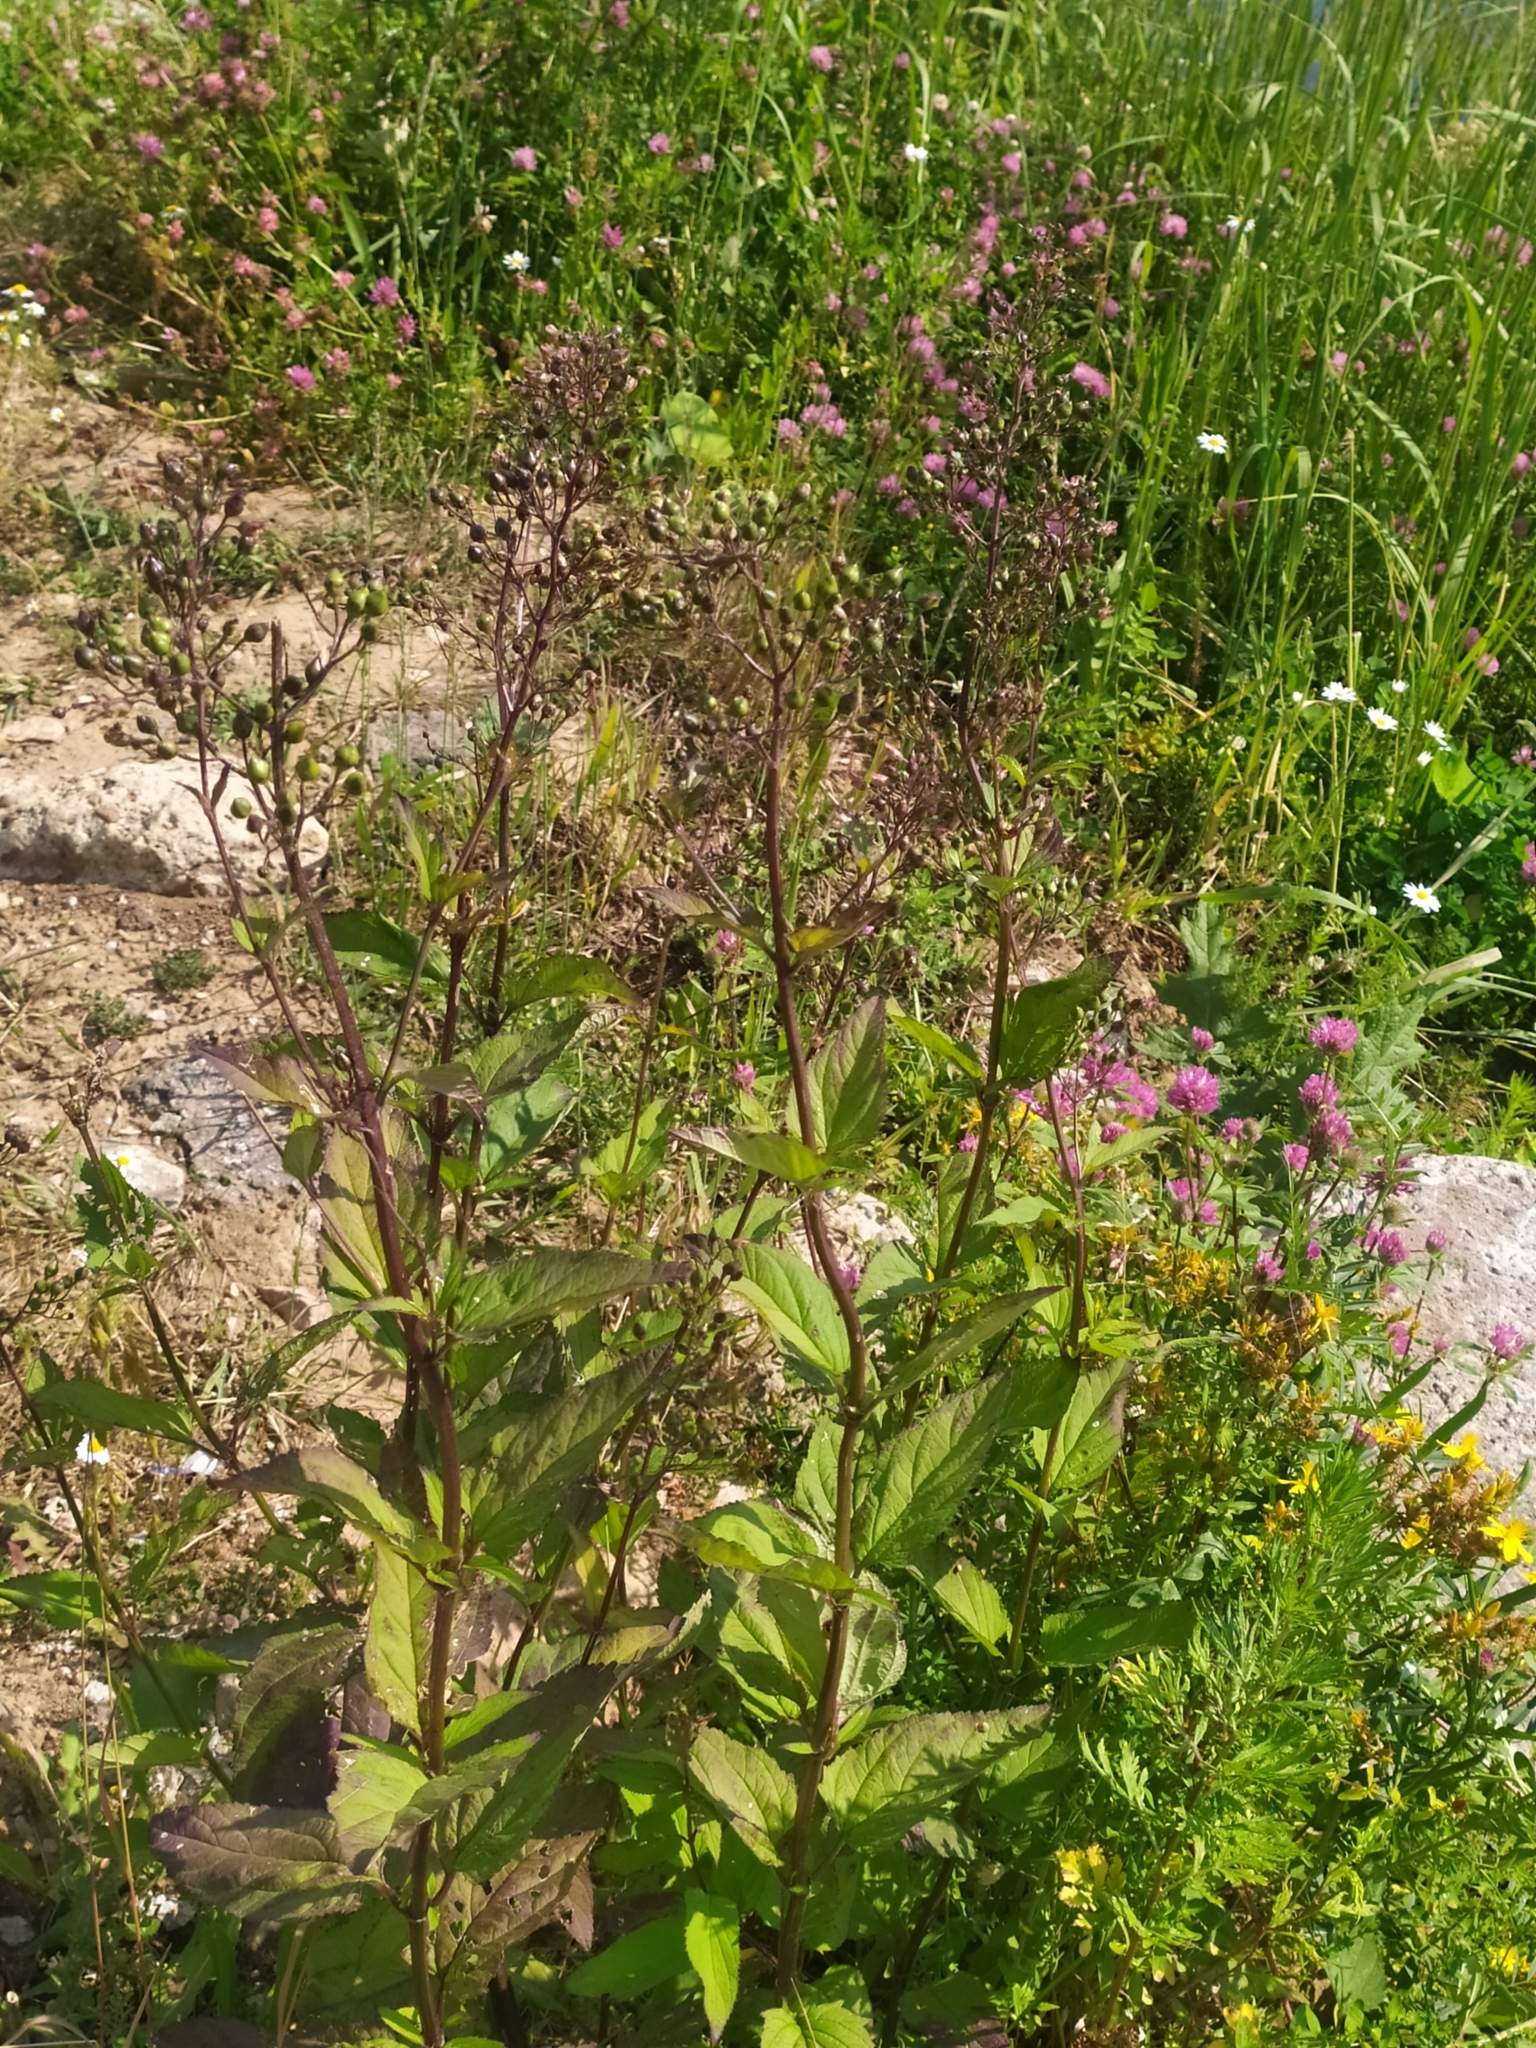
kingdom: Plantae
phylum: Tracheophyta
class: Magnoliopsida
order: Lamiales
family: Scrophulariaceae
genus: Scrophularia
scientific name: Scrophularia nodosa
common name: Common figwort
